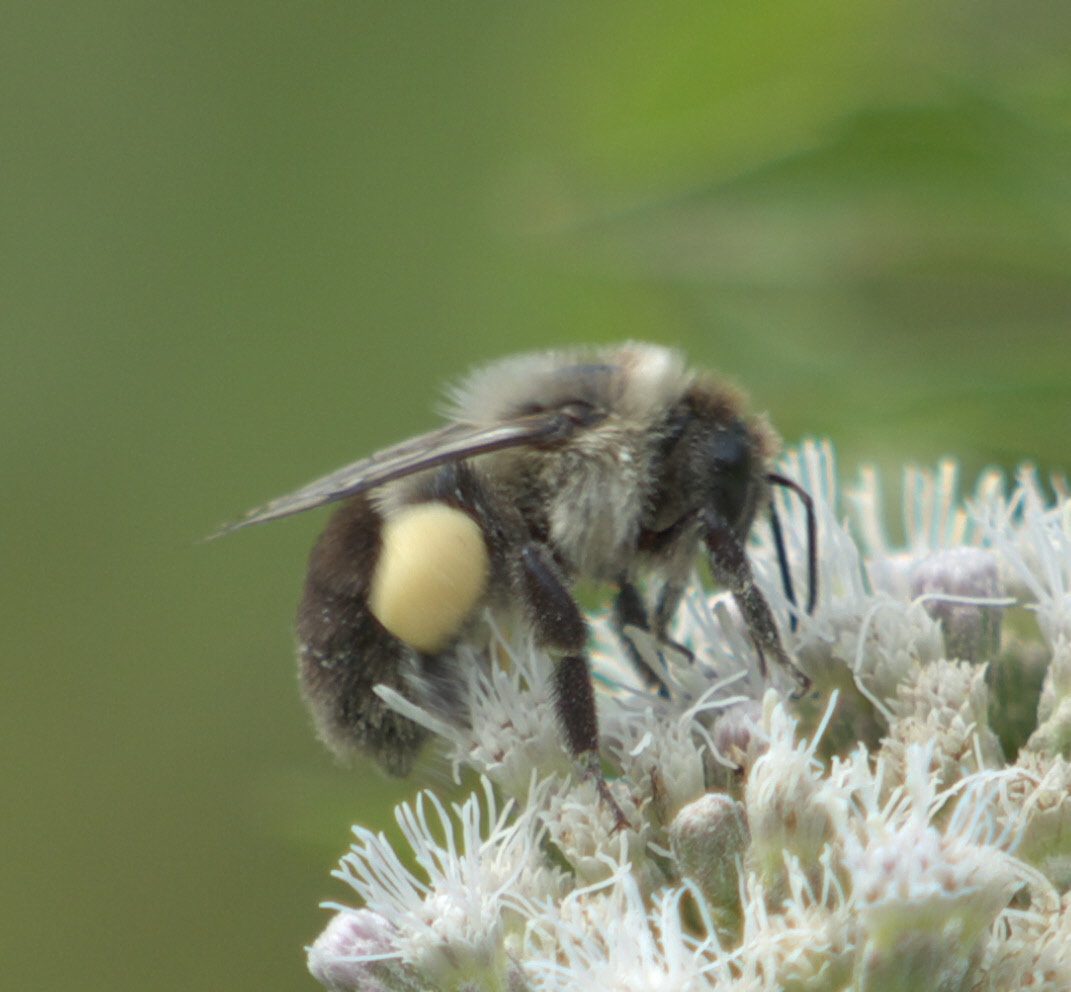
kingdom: Animalia
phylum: Arthropoda
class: Insecta
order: Hymenoptera
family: Apidae
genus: Bombus
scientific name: Bombus impatiens
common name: Common eastern bumble bee
